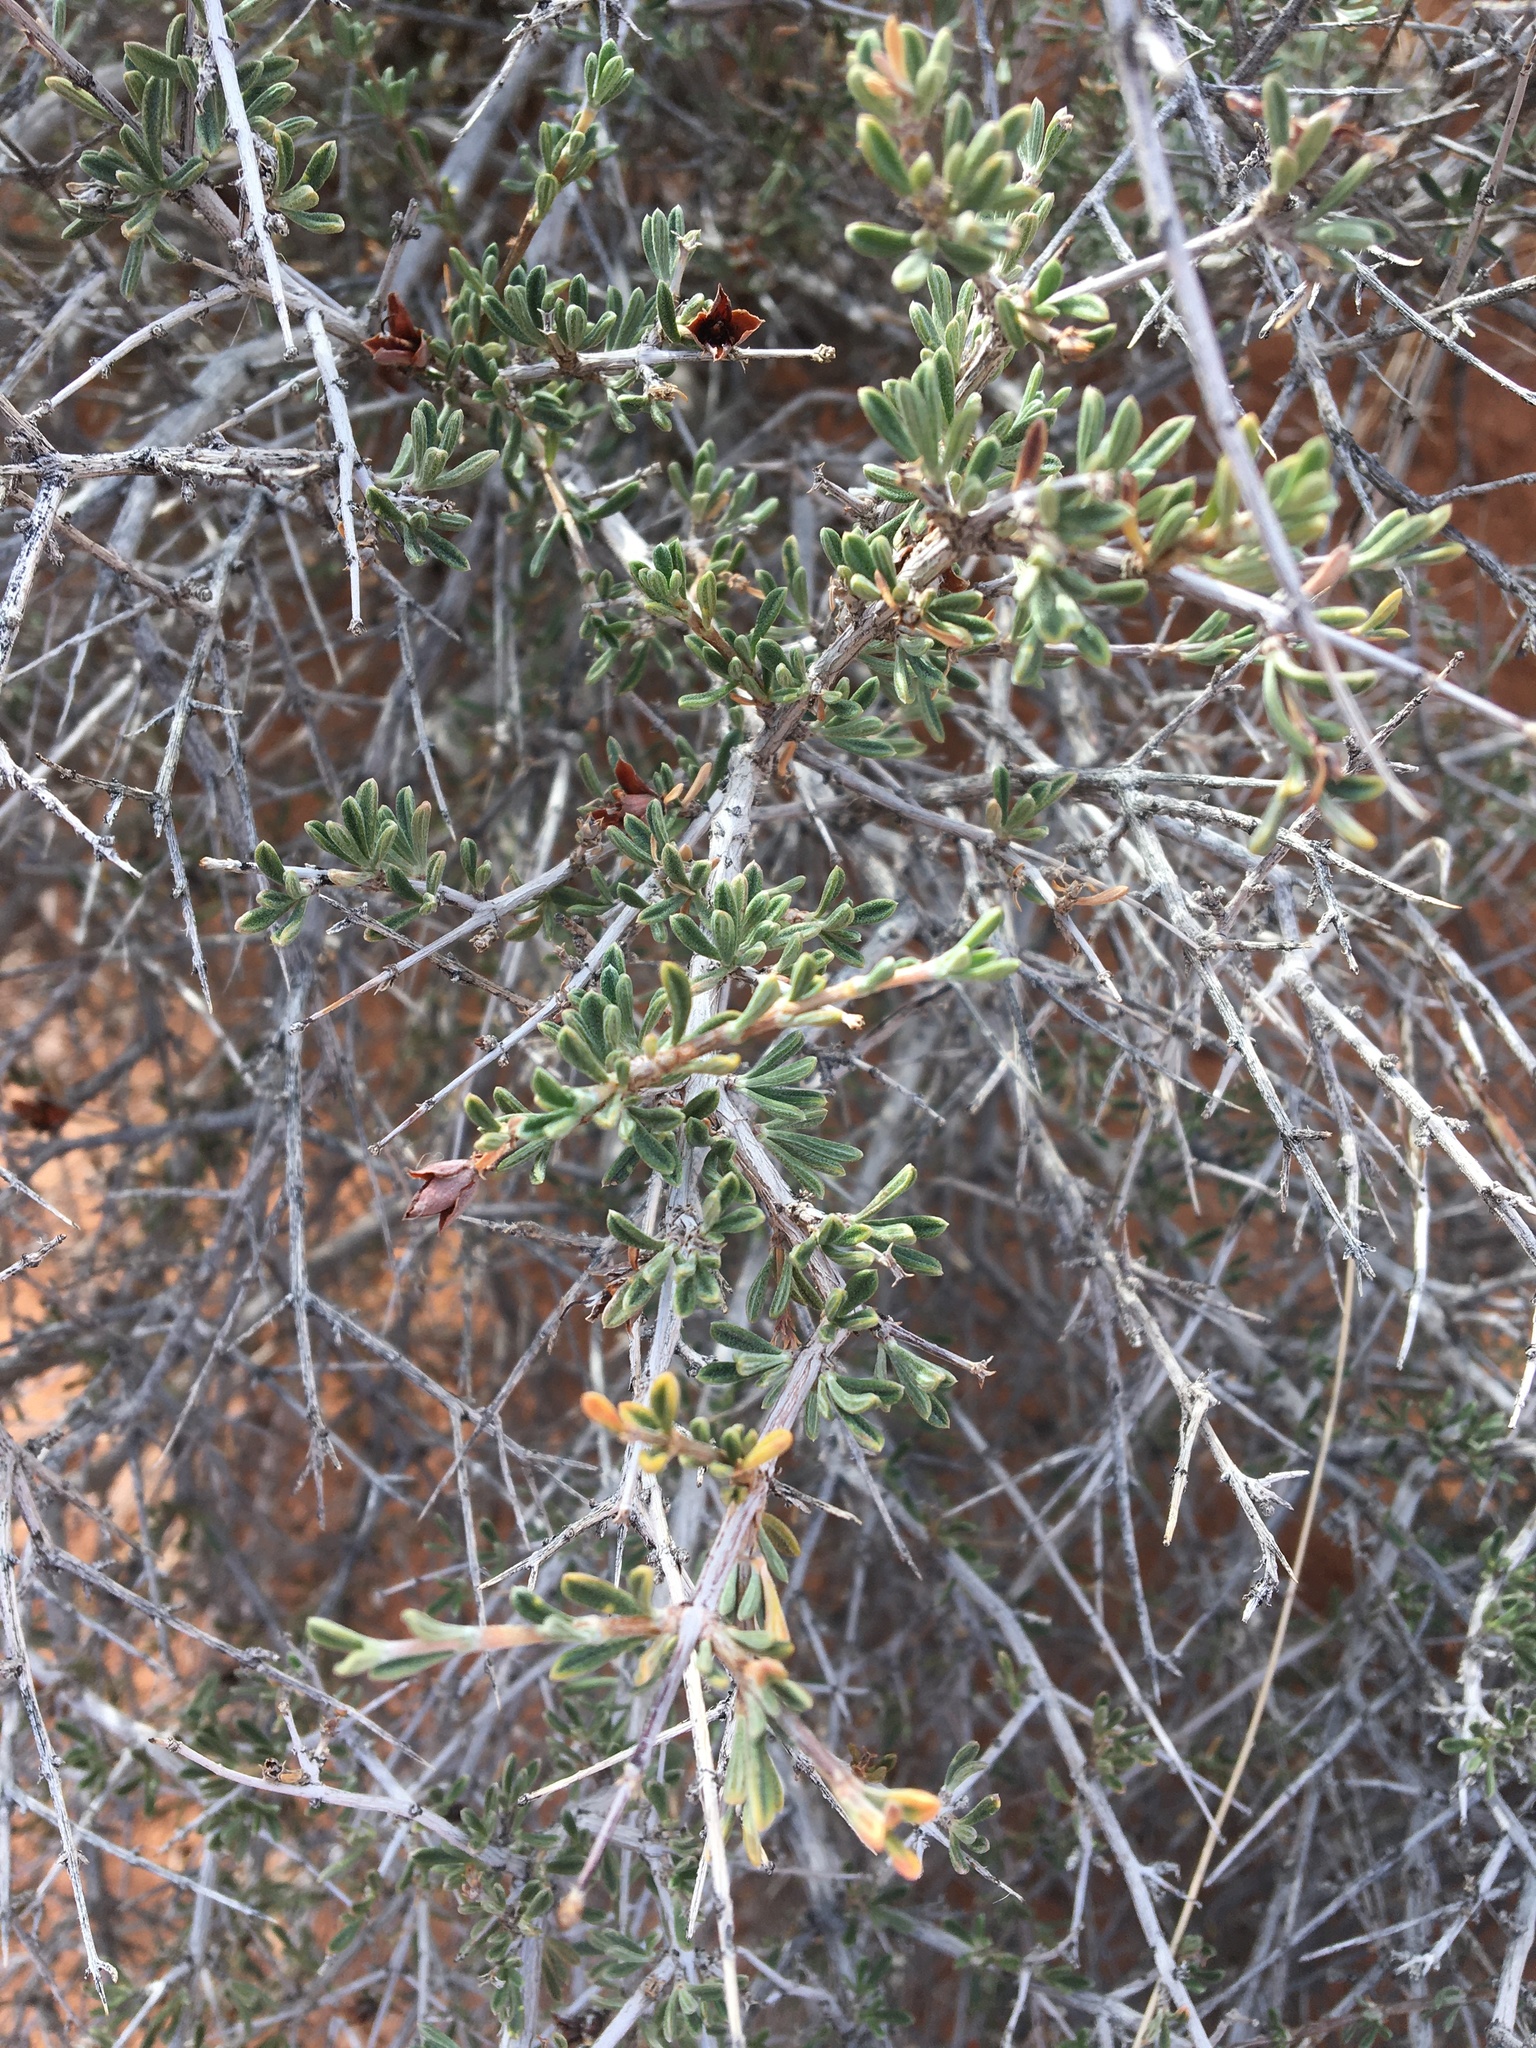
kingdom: Plantae
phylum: Tracheophyta
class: Magnoliopsida
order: Rosales
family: Rosaceae
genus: Coleogyne
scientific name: Coleogyne ramosissima
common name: Blackbrush
